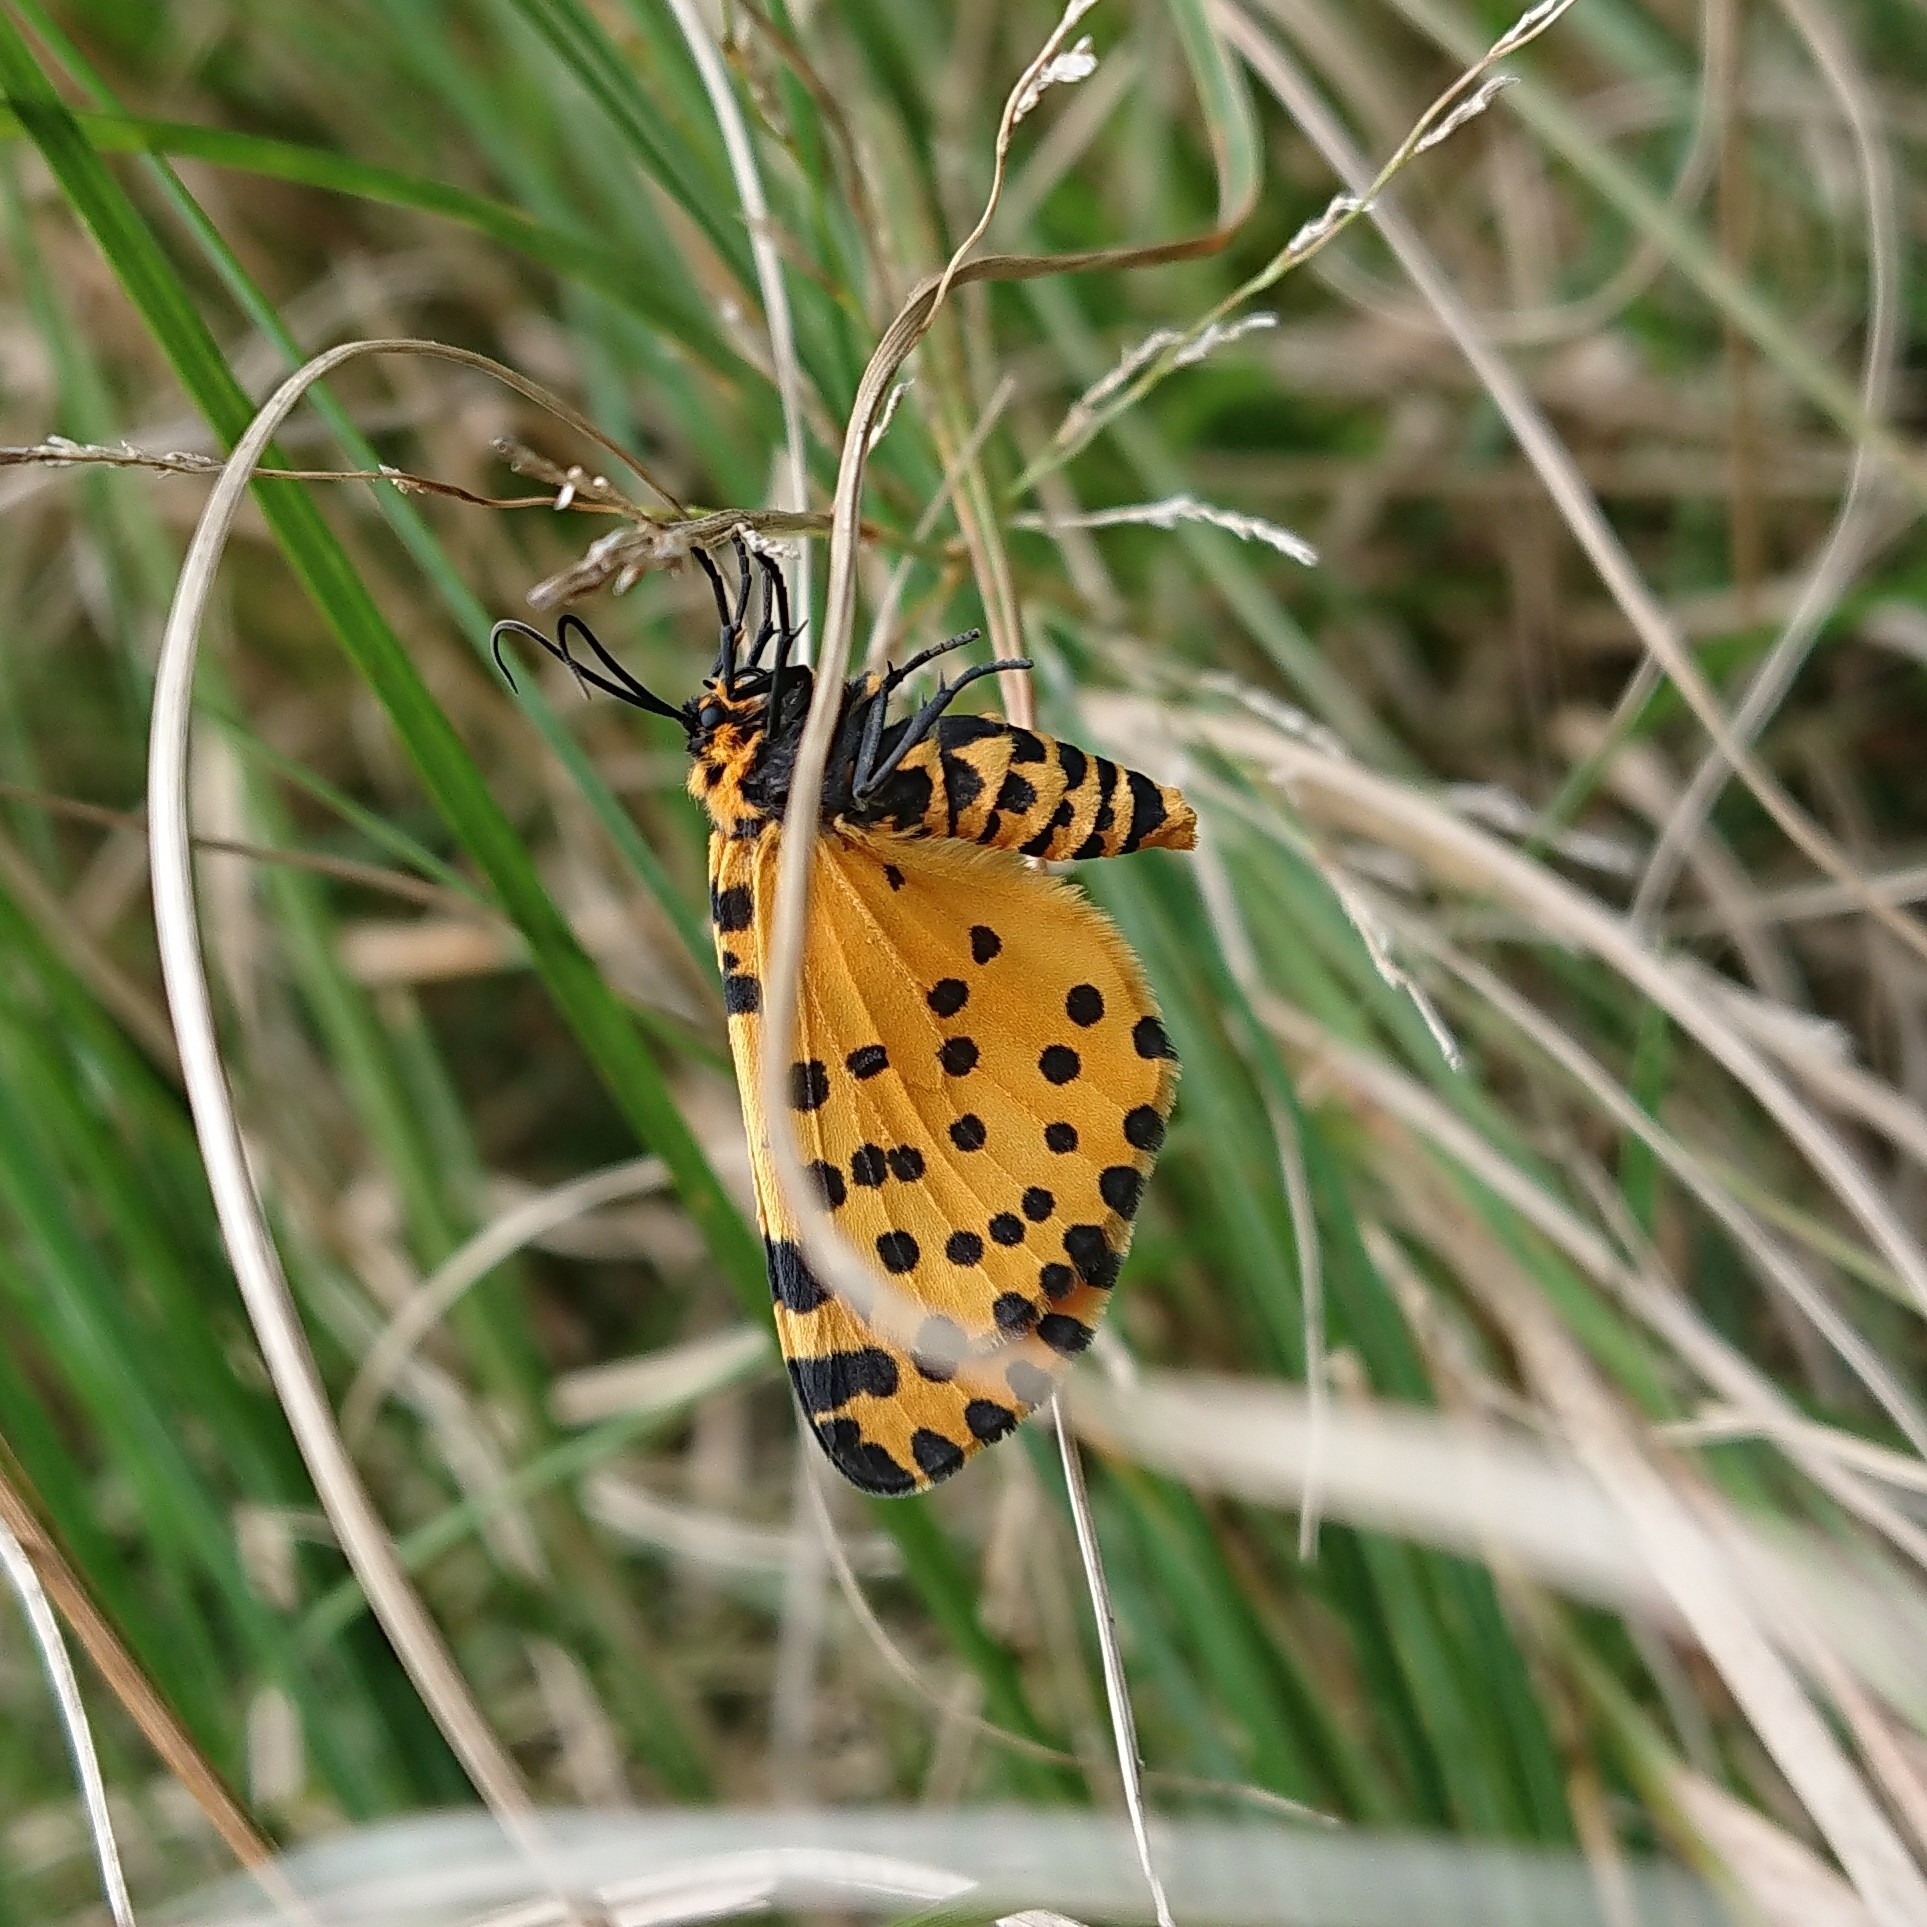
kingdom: Animalia
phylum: Arthropoda
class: Insecta
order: Lepidoptera
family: Geometridae
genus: Zerenopsis
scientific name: Zerenopsis lepida
